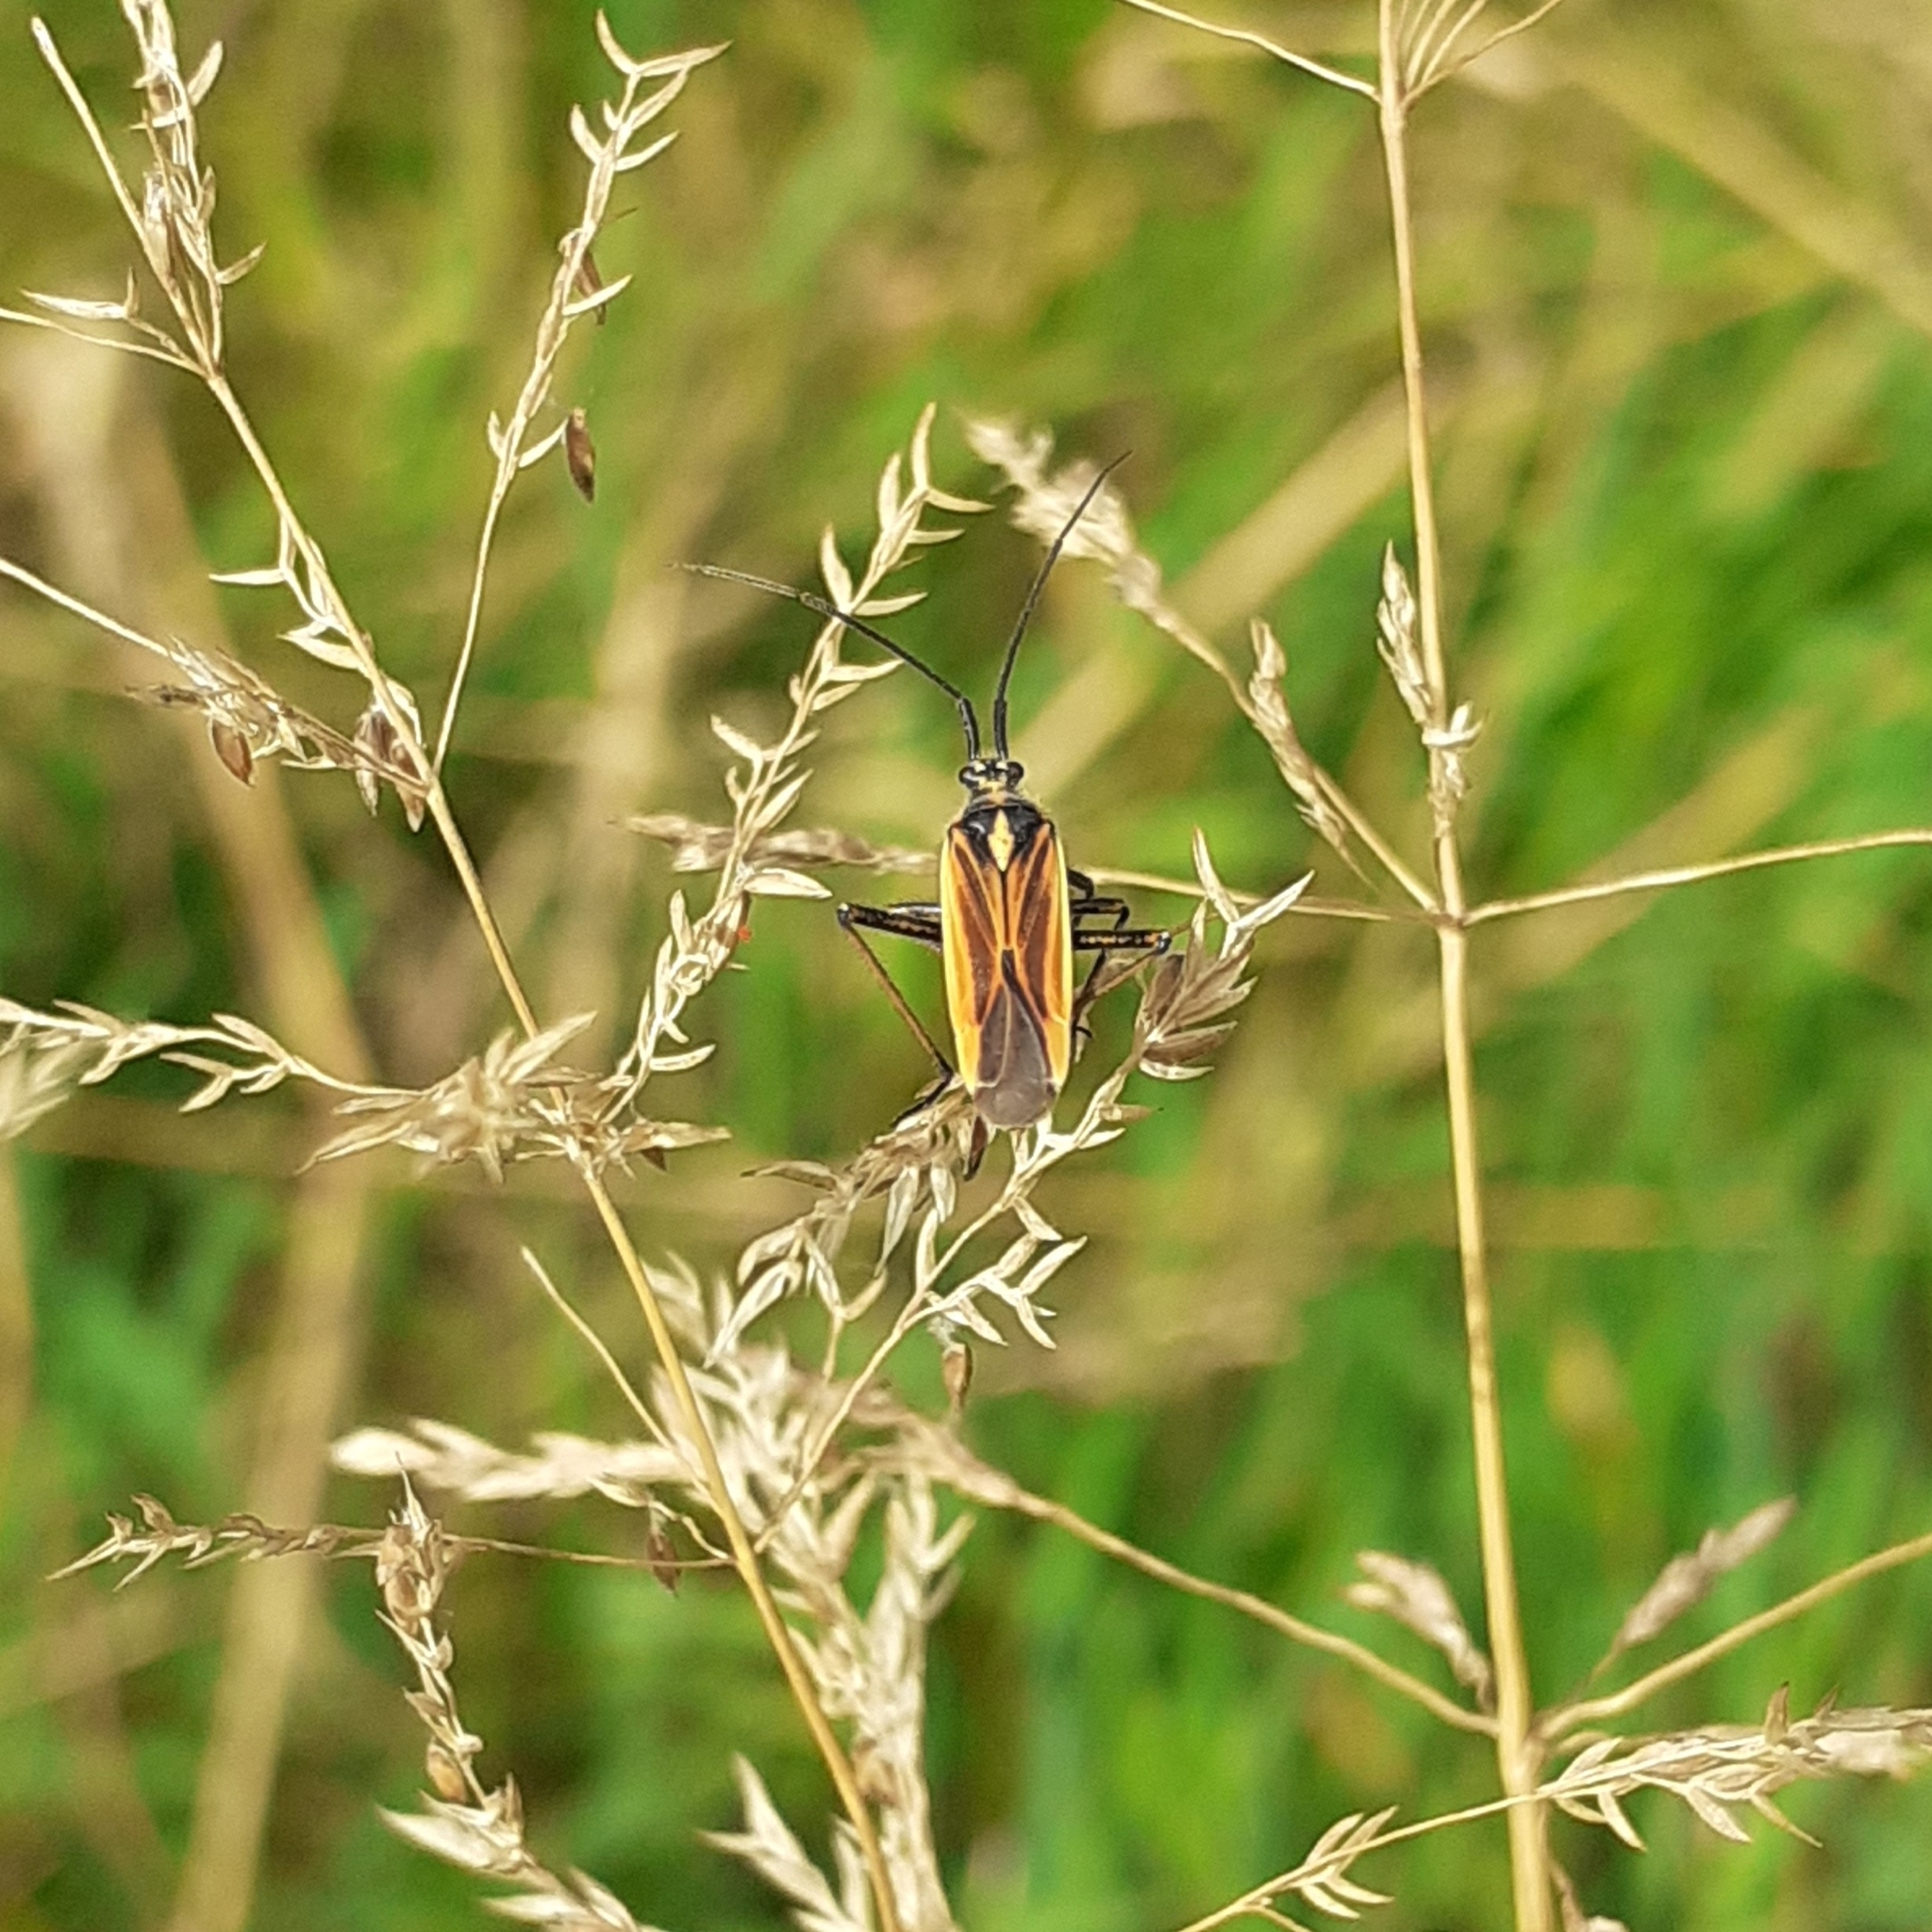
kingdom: Animalia
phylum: Arthropoda
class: Insecta
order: Hemiptera
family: Miridae
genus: Leptopterna
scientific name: Leptopterna dolabrata
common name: Meadow plant bug
